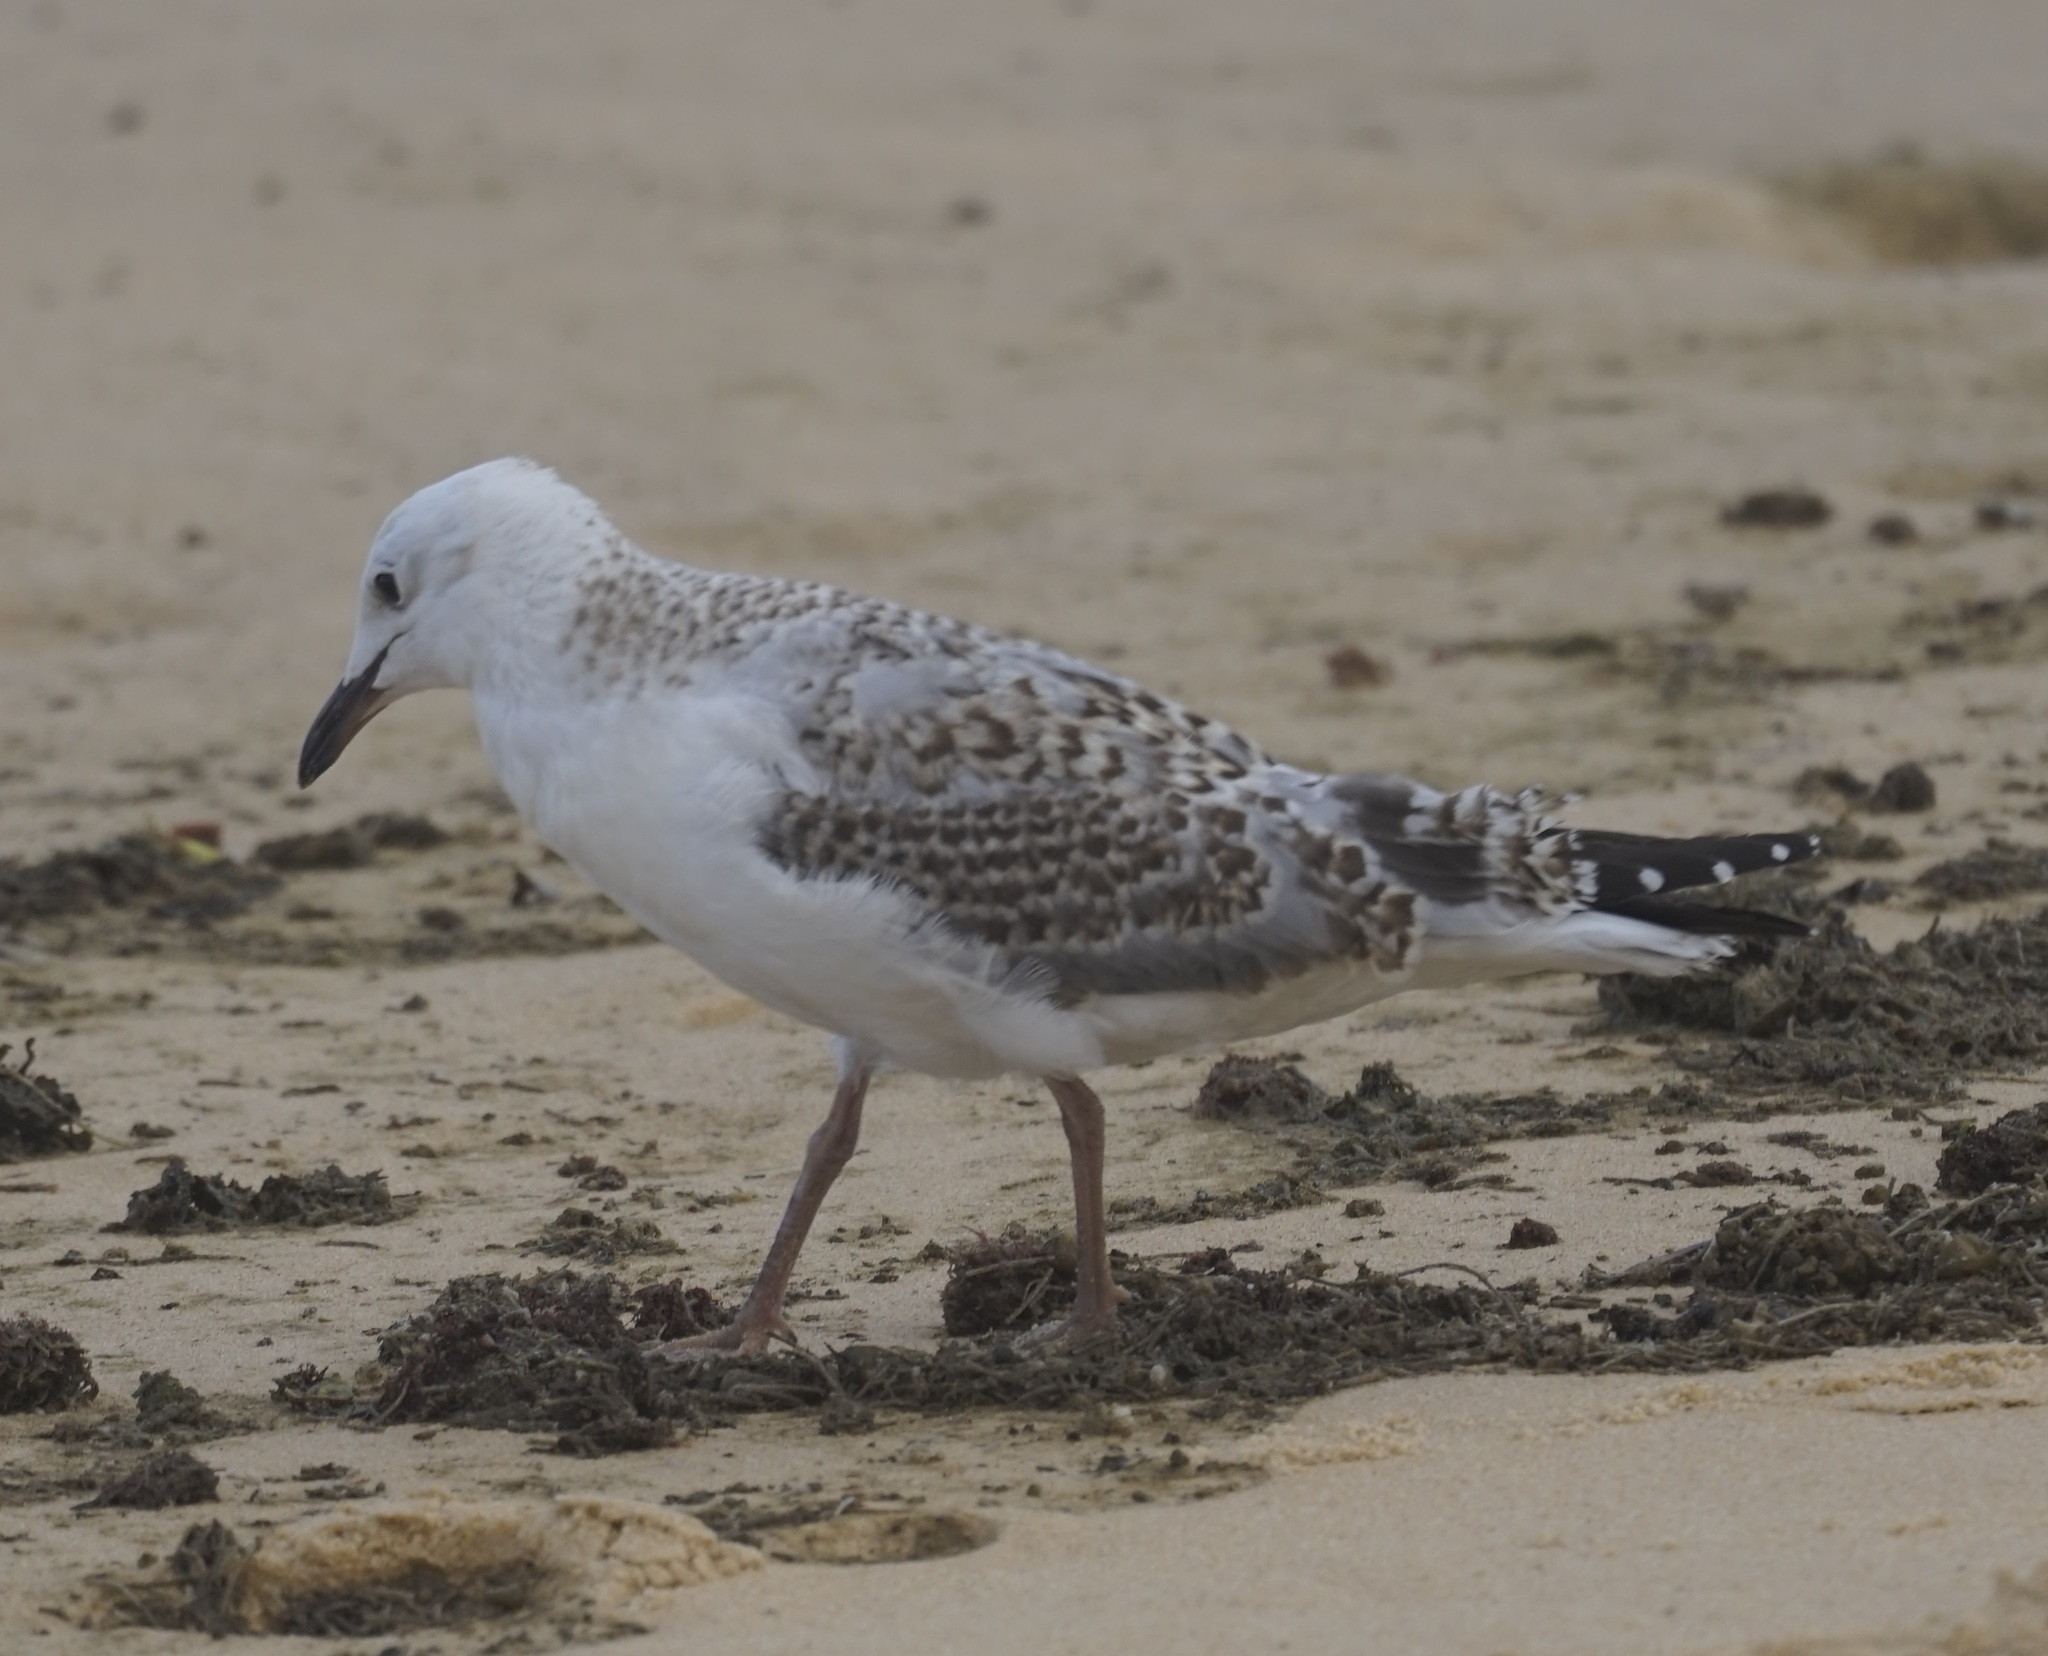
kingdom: Animalia
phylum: Chordata
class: Aves
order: Charadriiformes
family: Laridae
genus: Chroicocephalus
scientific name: Chroicocephalus novaehollandiae
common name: Silver gull
